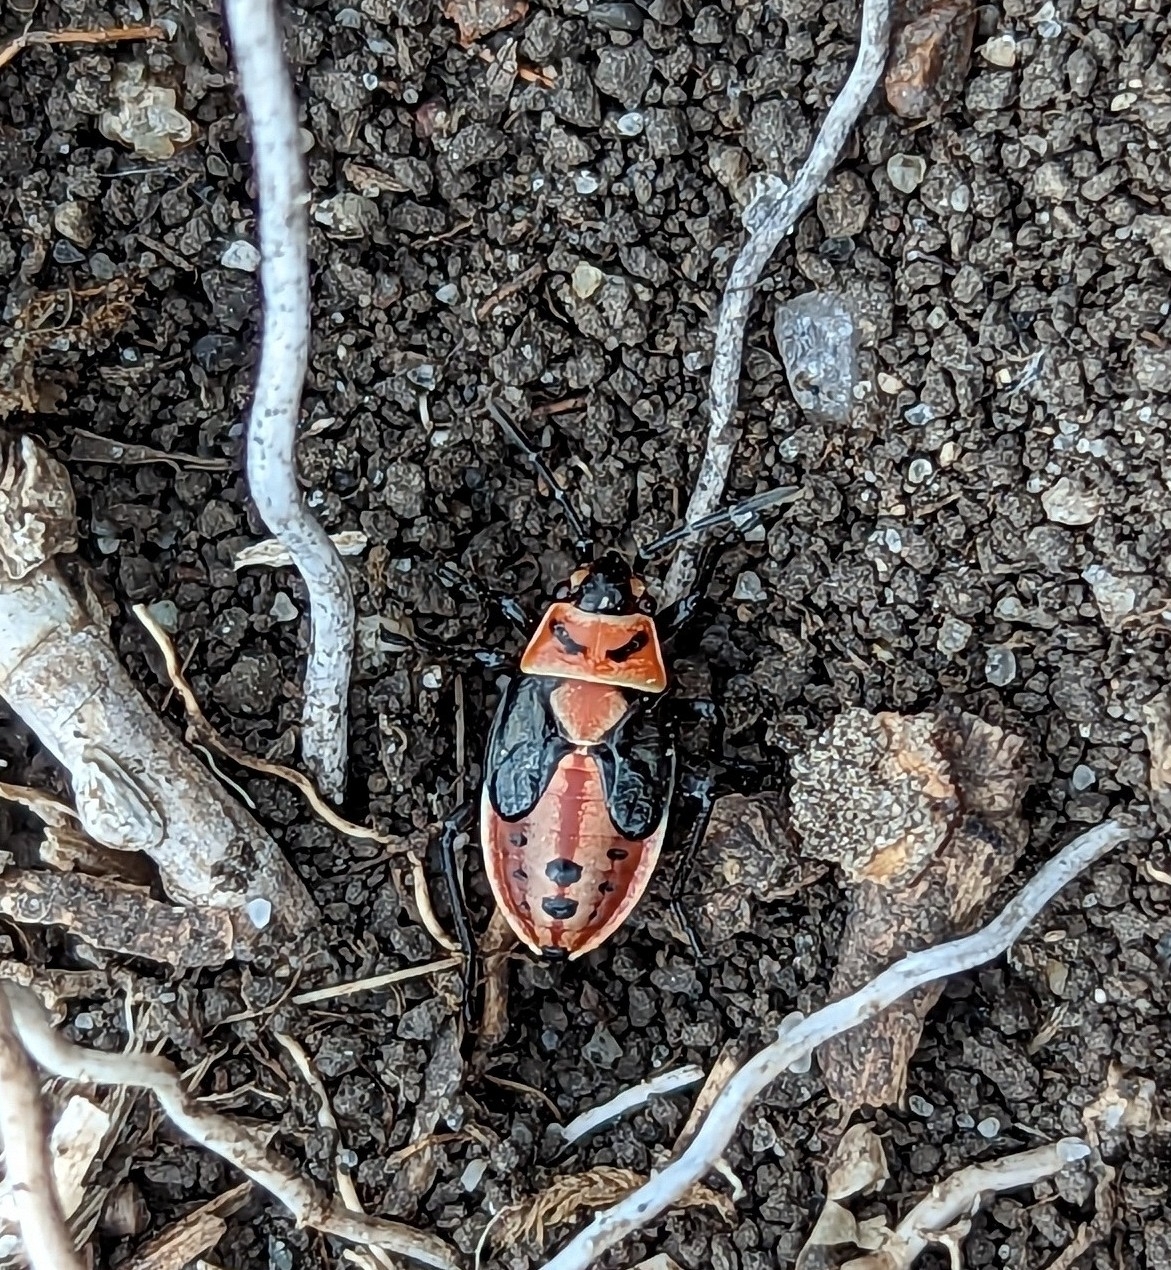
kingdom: Animalia
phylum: Arthropoda
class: Insecta
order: Hemiptera
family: Lygaeidae
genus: Lygaeus
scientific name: Lygaeus kalmii
